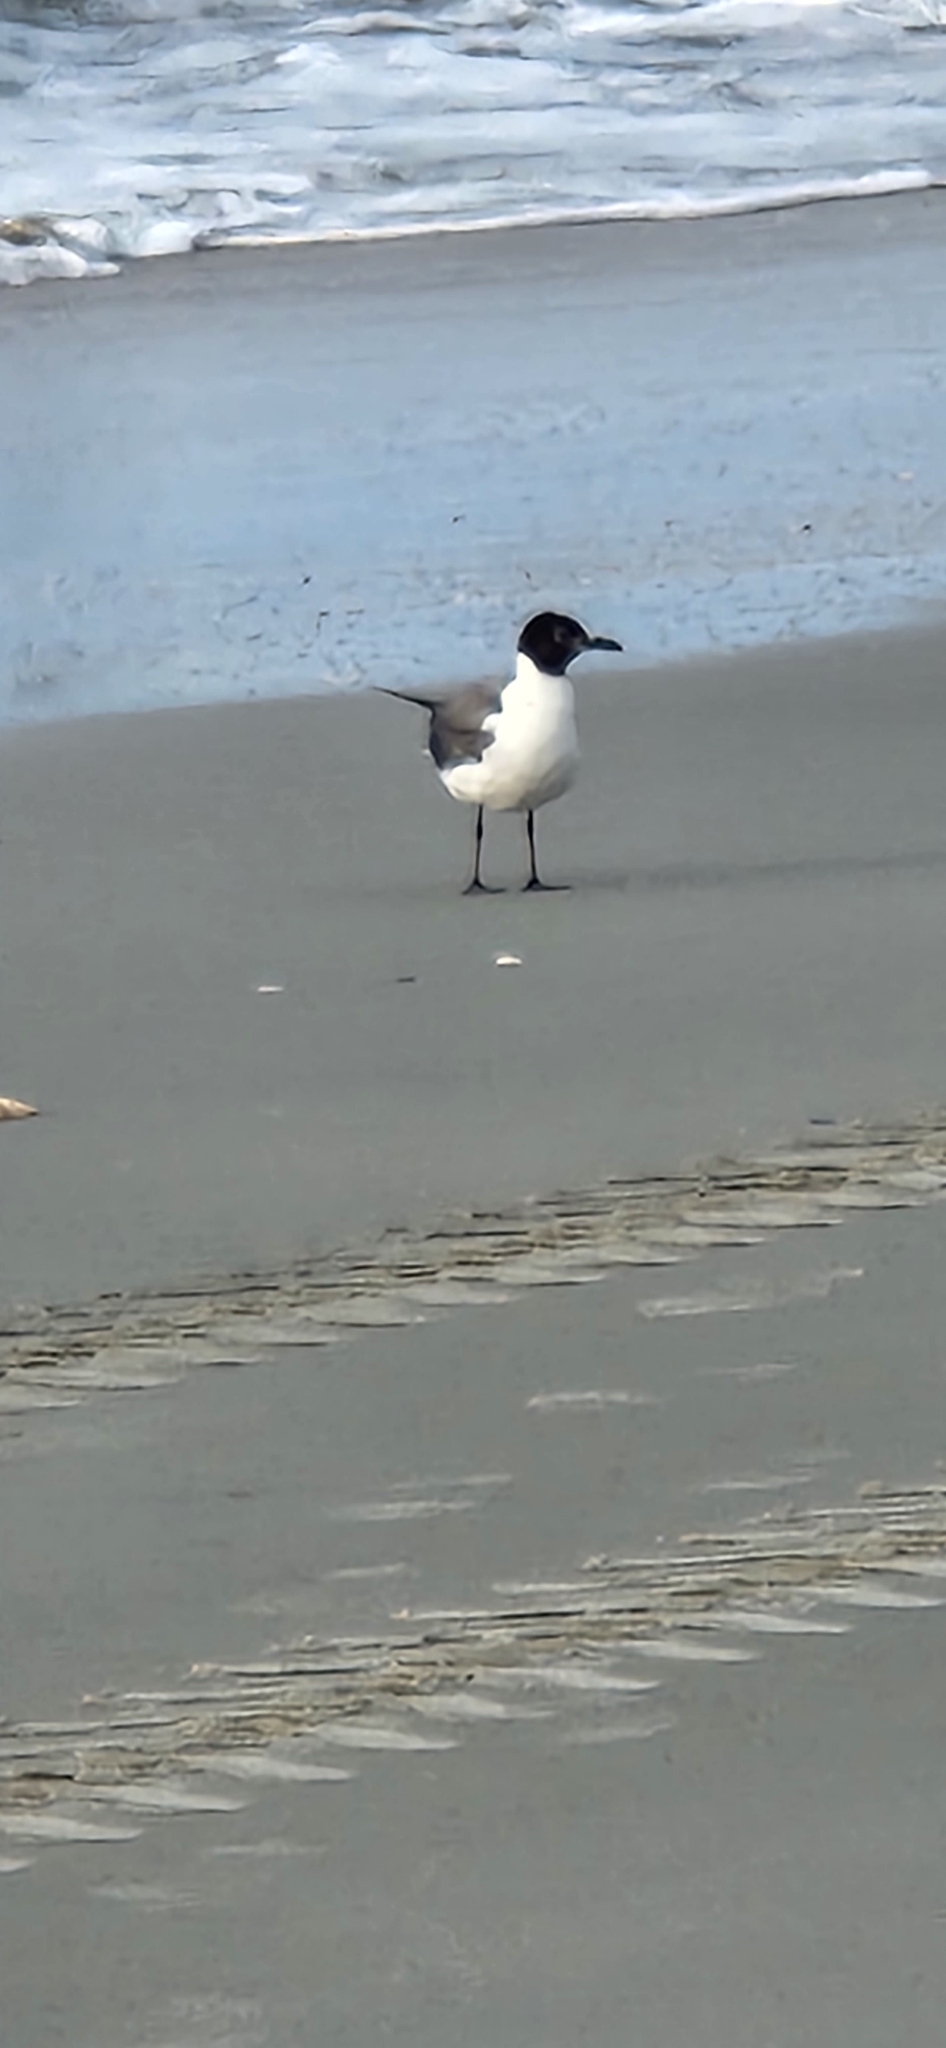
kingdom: Animalia
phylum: Chordata
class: Aves
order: Charadriiformes
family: Laridae
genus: Leucophaeus
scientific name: Leucophaeus atricilla
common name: Laughing gull
